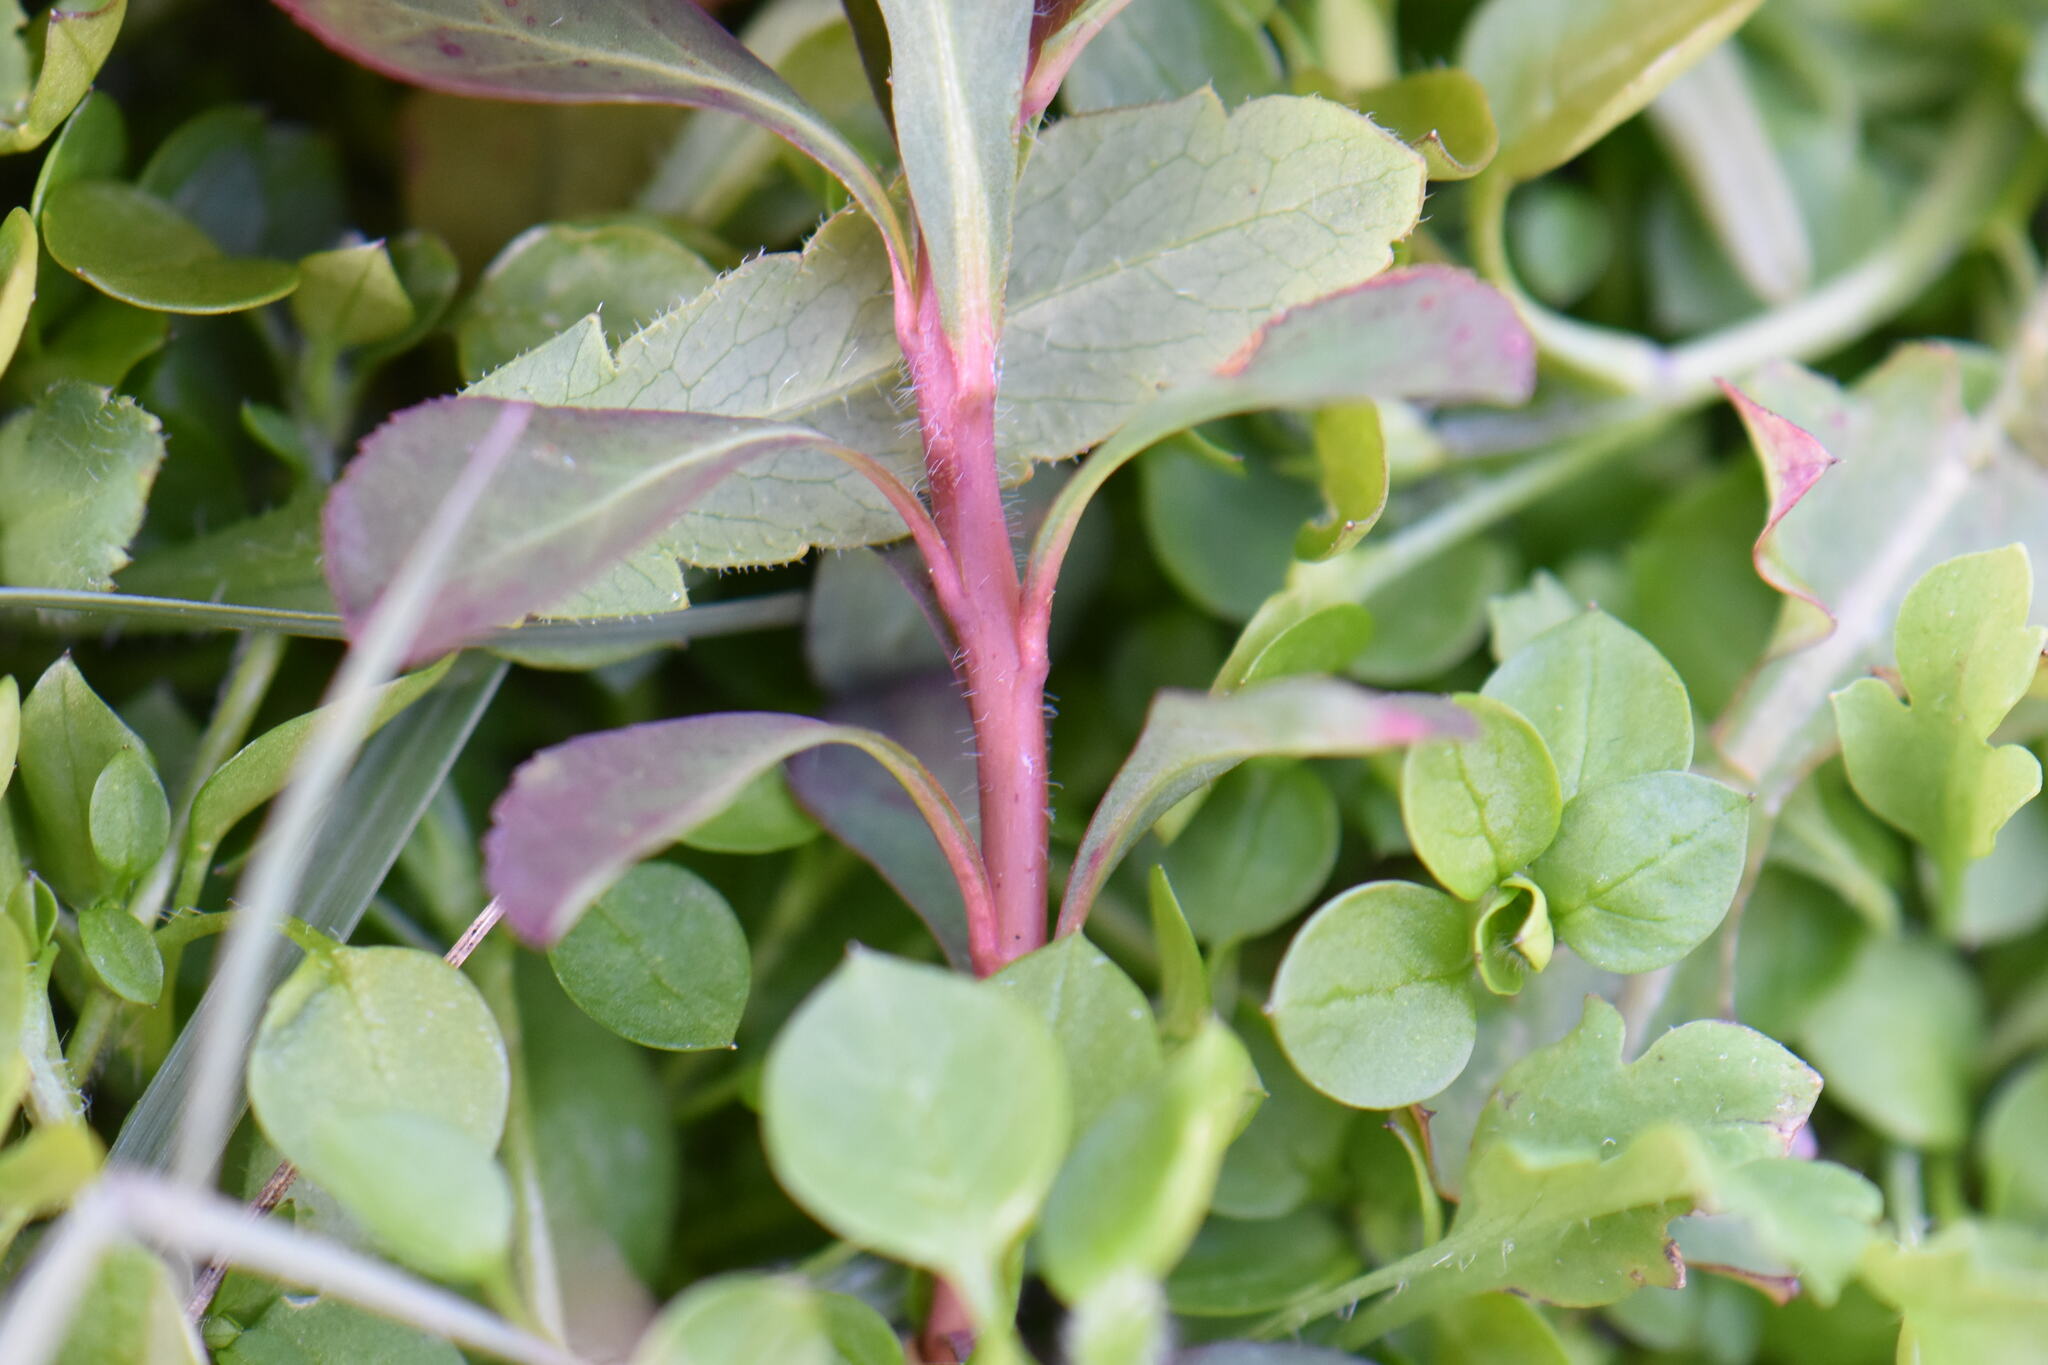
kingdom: Plantae
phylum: Tracheophyta
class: Magnoliopsida
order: Malpighiales
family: Euphorbiaceae
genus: Euphorbia
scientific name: Euphorbia helioscopia
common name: Sun spurge
